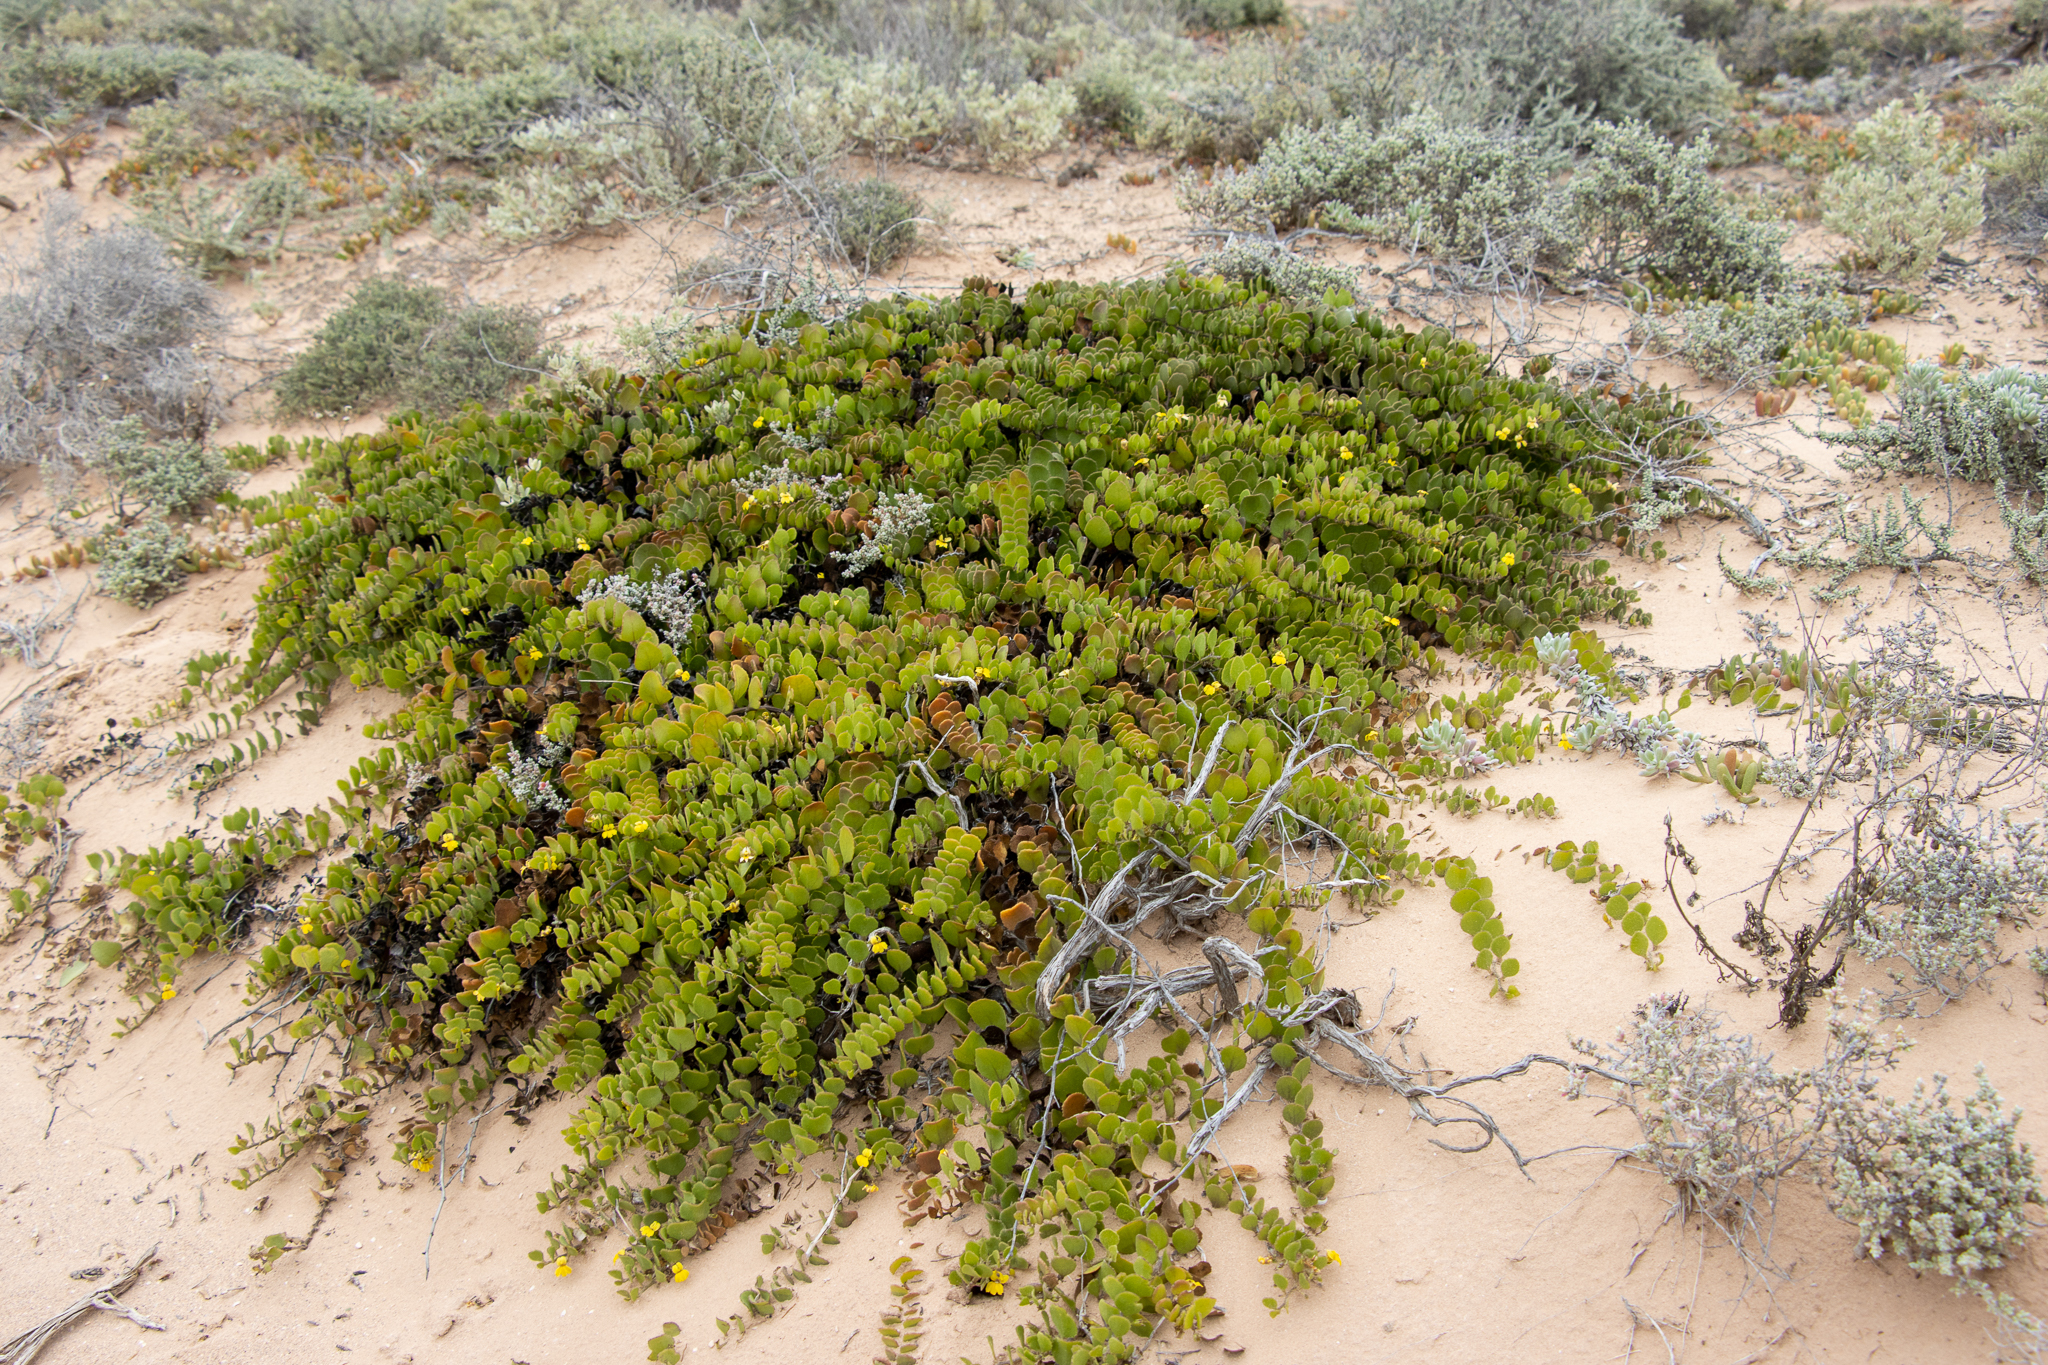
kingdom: Plantae
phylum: Tracheophyta
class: Magnoliopsida
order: Asterales
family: Goodeniaceae
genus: Goodenia
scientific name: Goodenia varia
